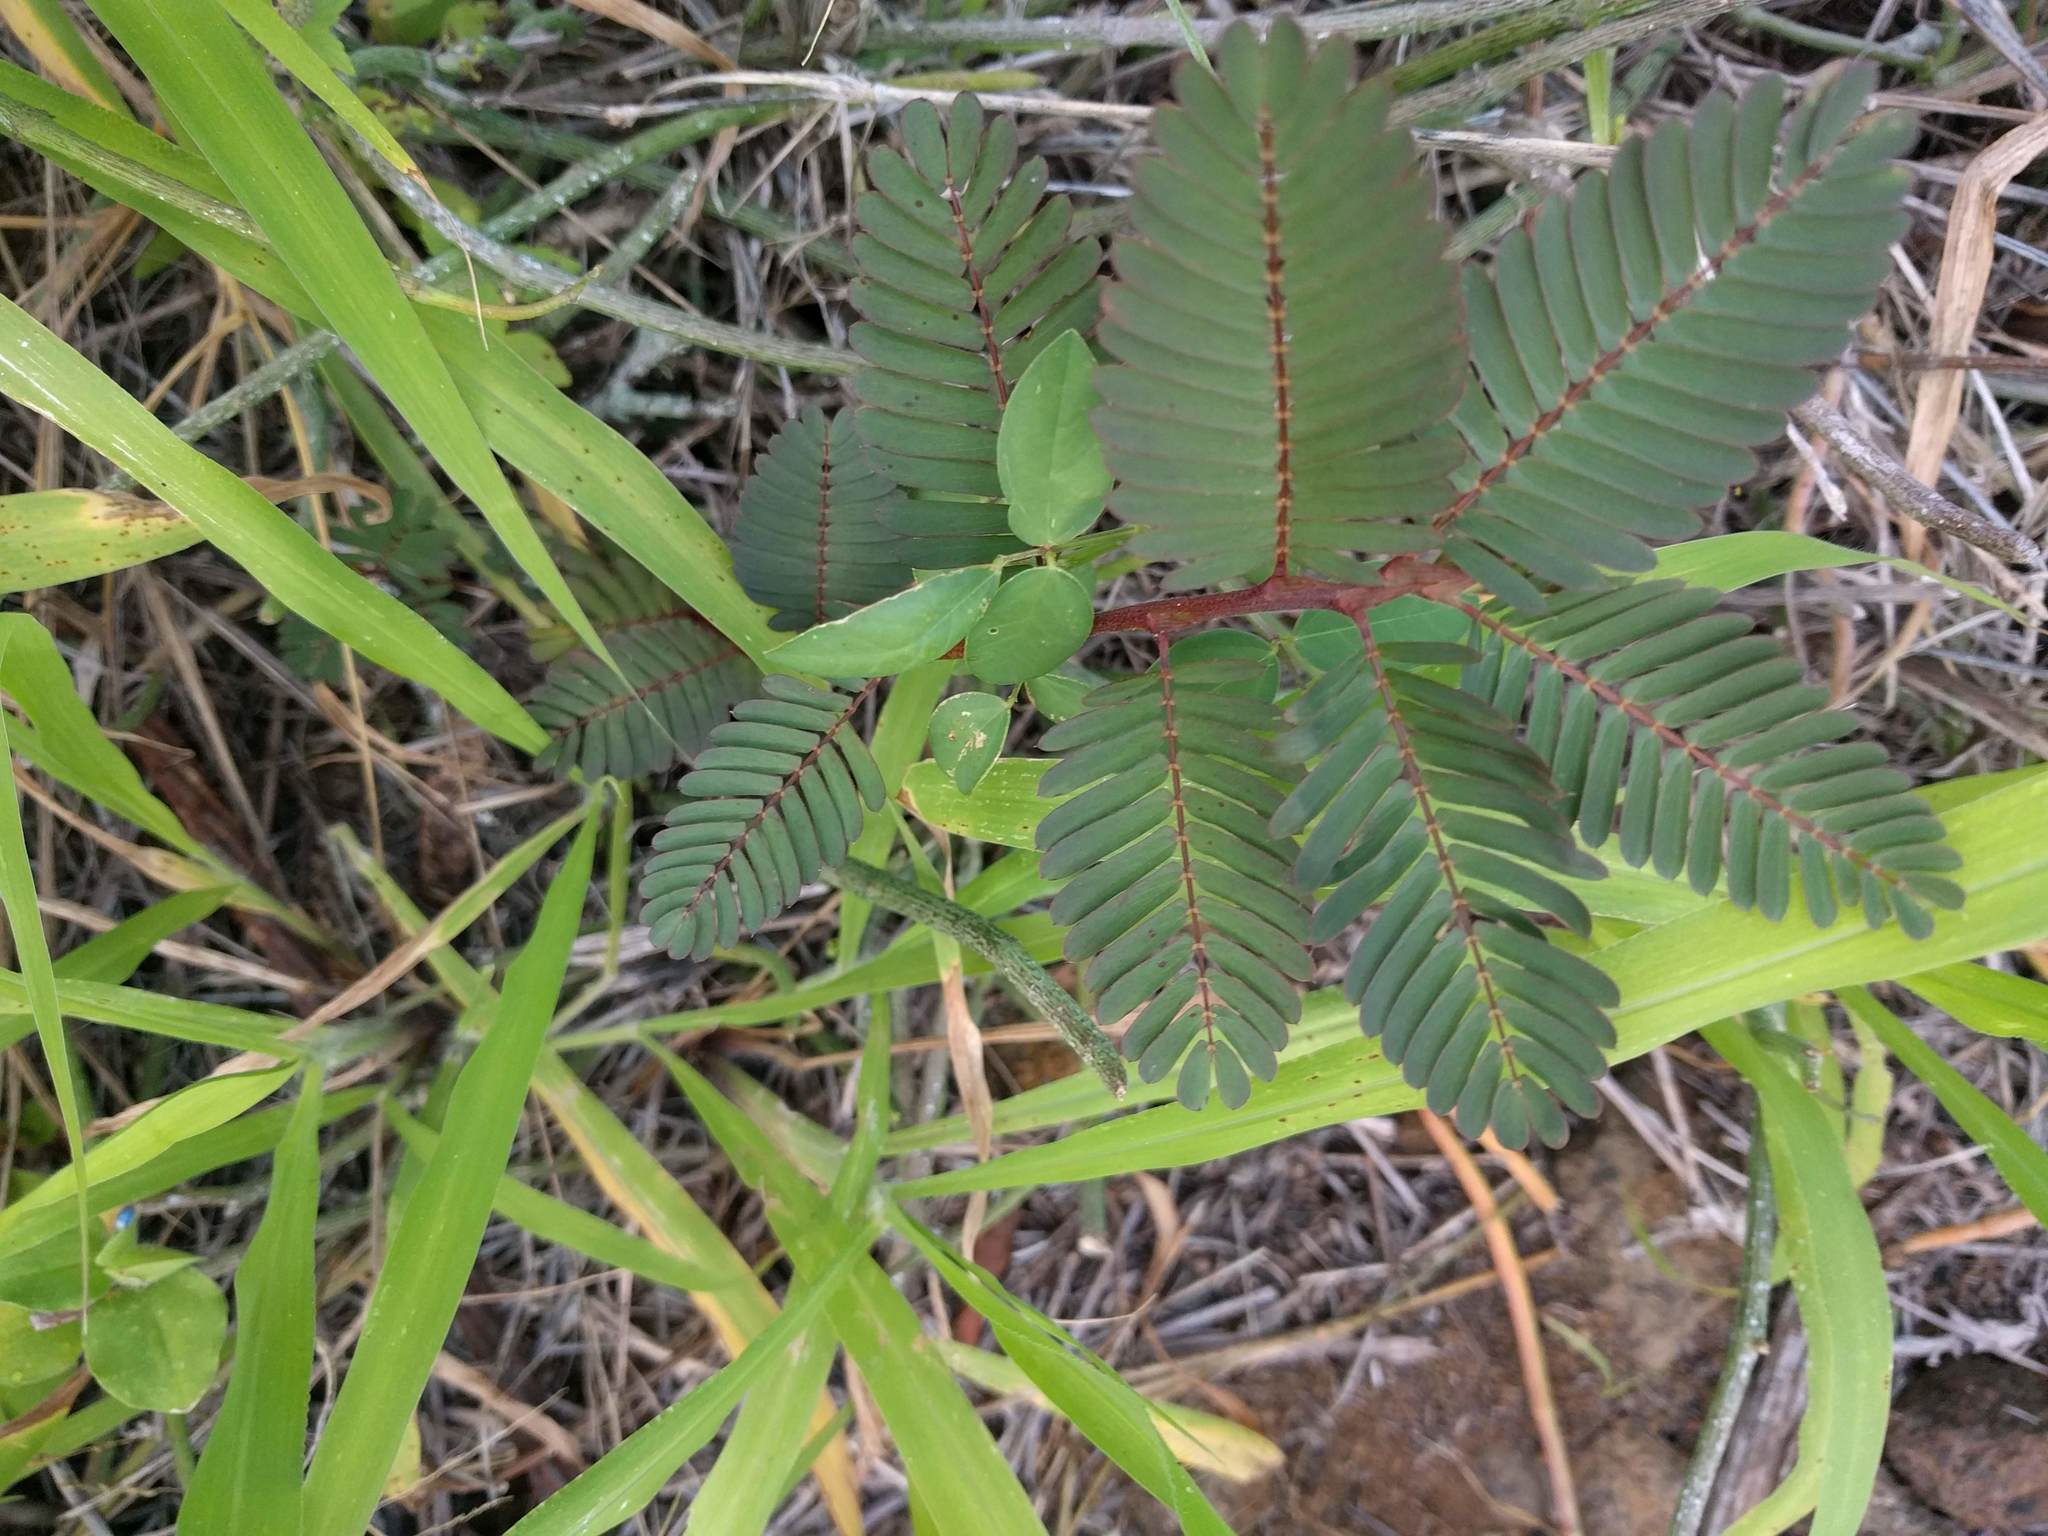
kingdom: Plantae
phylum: Tracheophyta
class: Magnoliopsida
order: Fabales
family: Fabaceae
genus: Chamaecrista
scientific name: Chamaecrista nictitans
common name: Sensitive cassia
